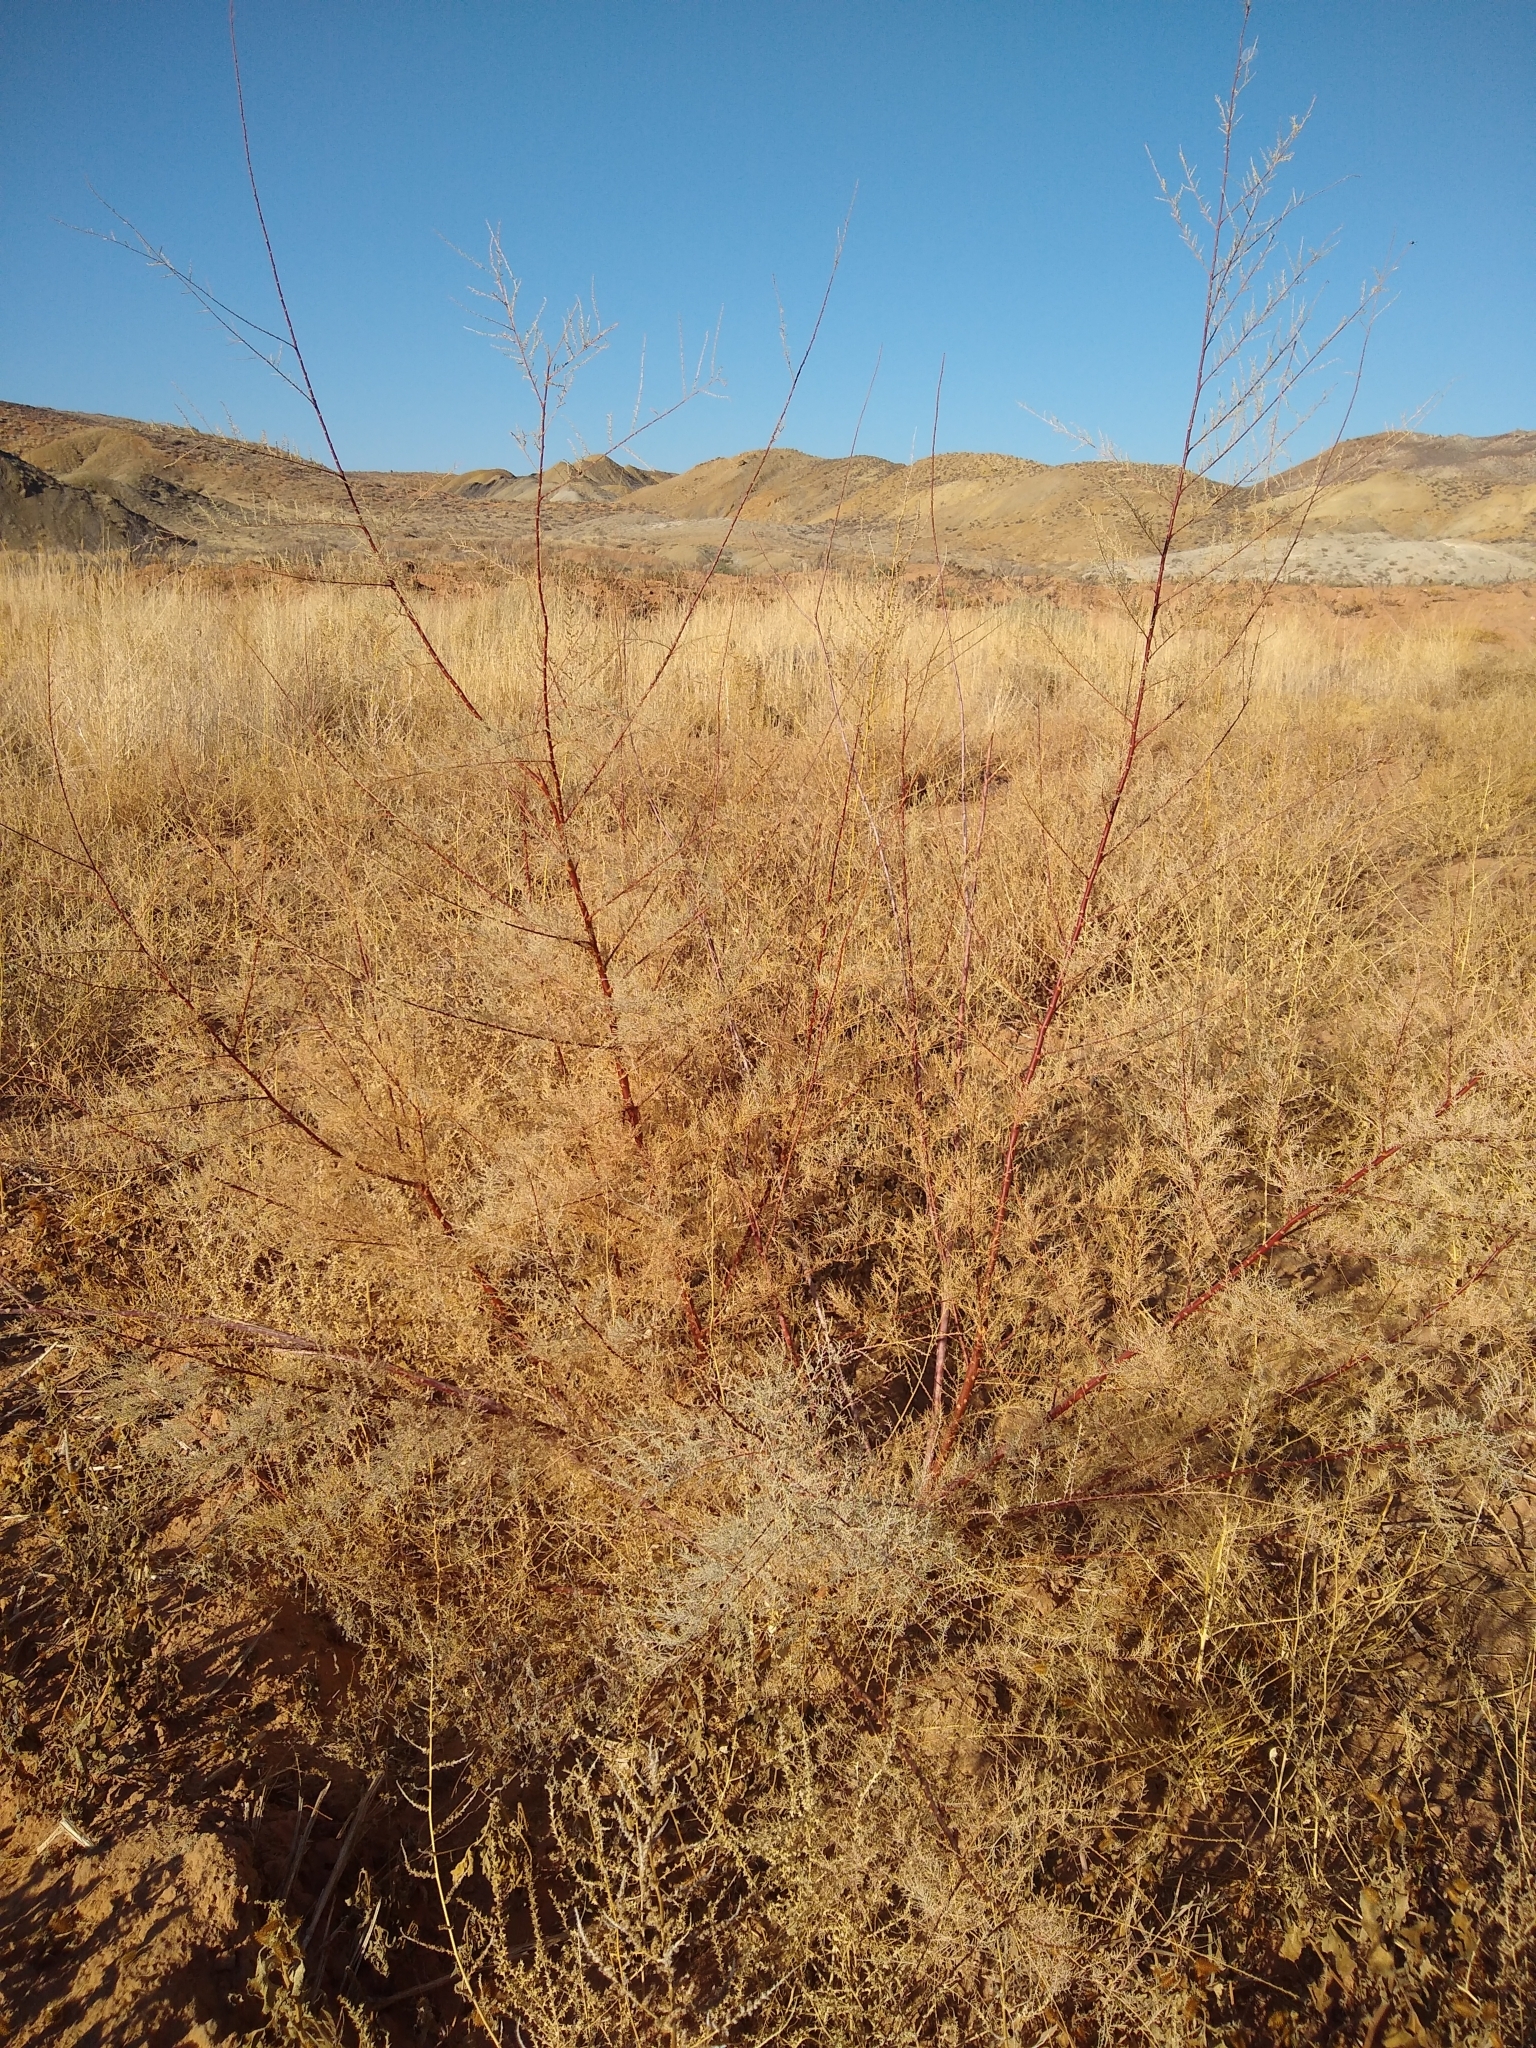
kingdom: Plantae
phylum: Tracheophyta
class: Magnoliopsida
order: Caryophyllales
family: Tamaricaceae
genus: Tamarix
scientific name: Tamarix ramosissima
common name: Pink tamarisk
